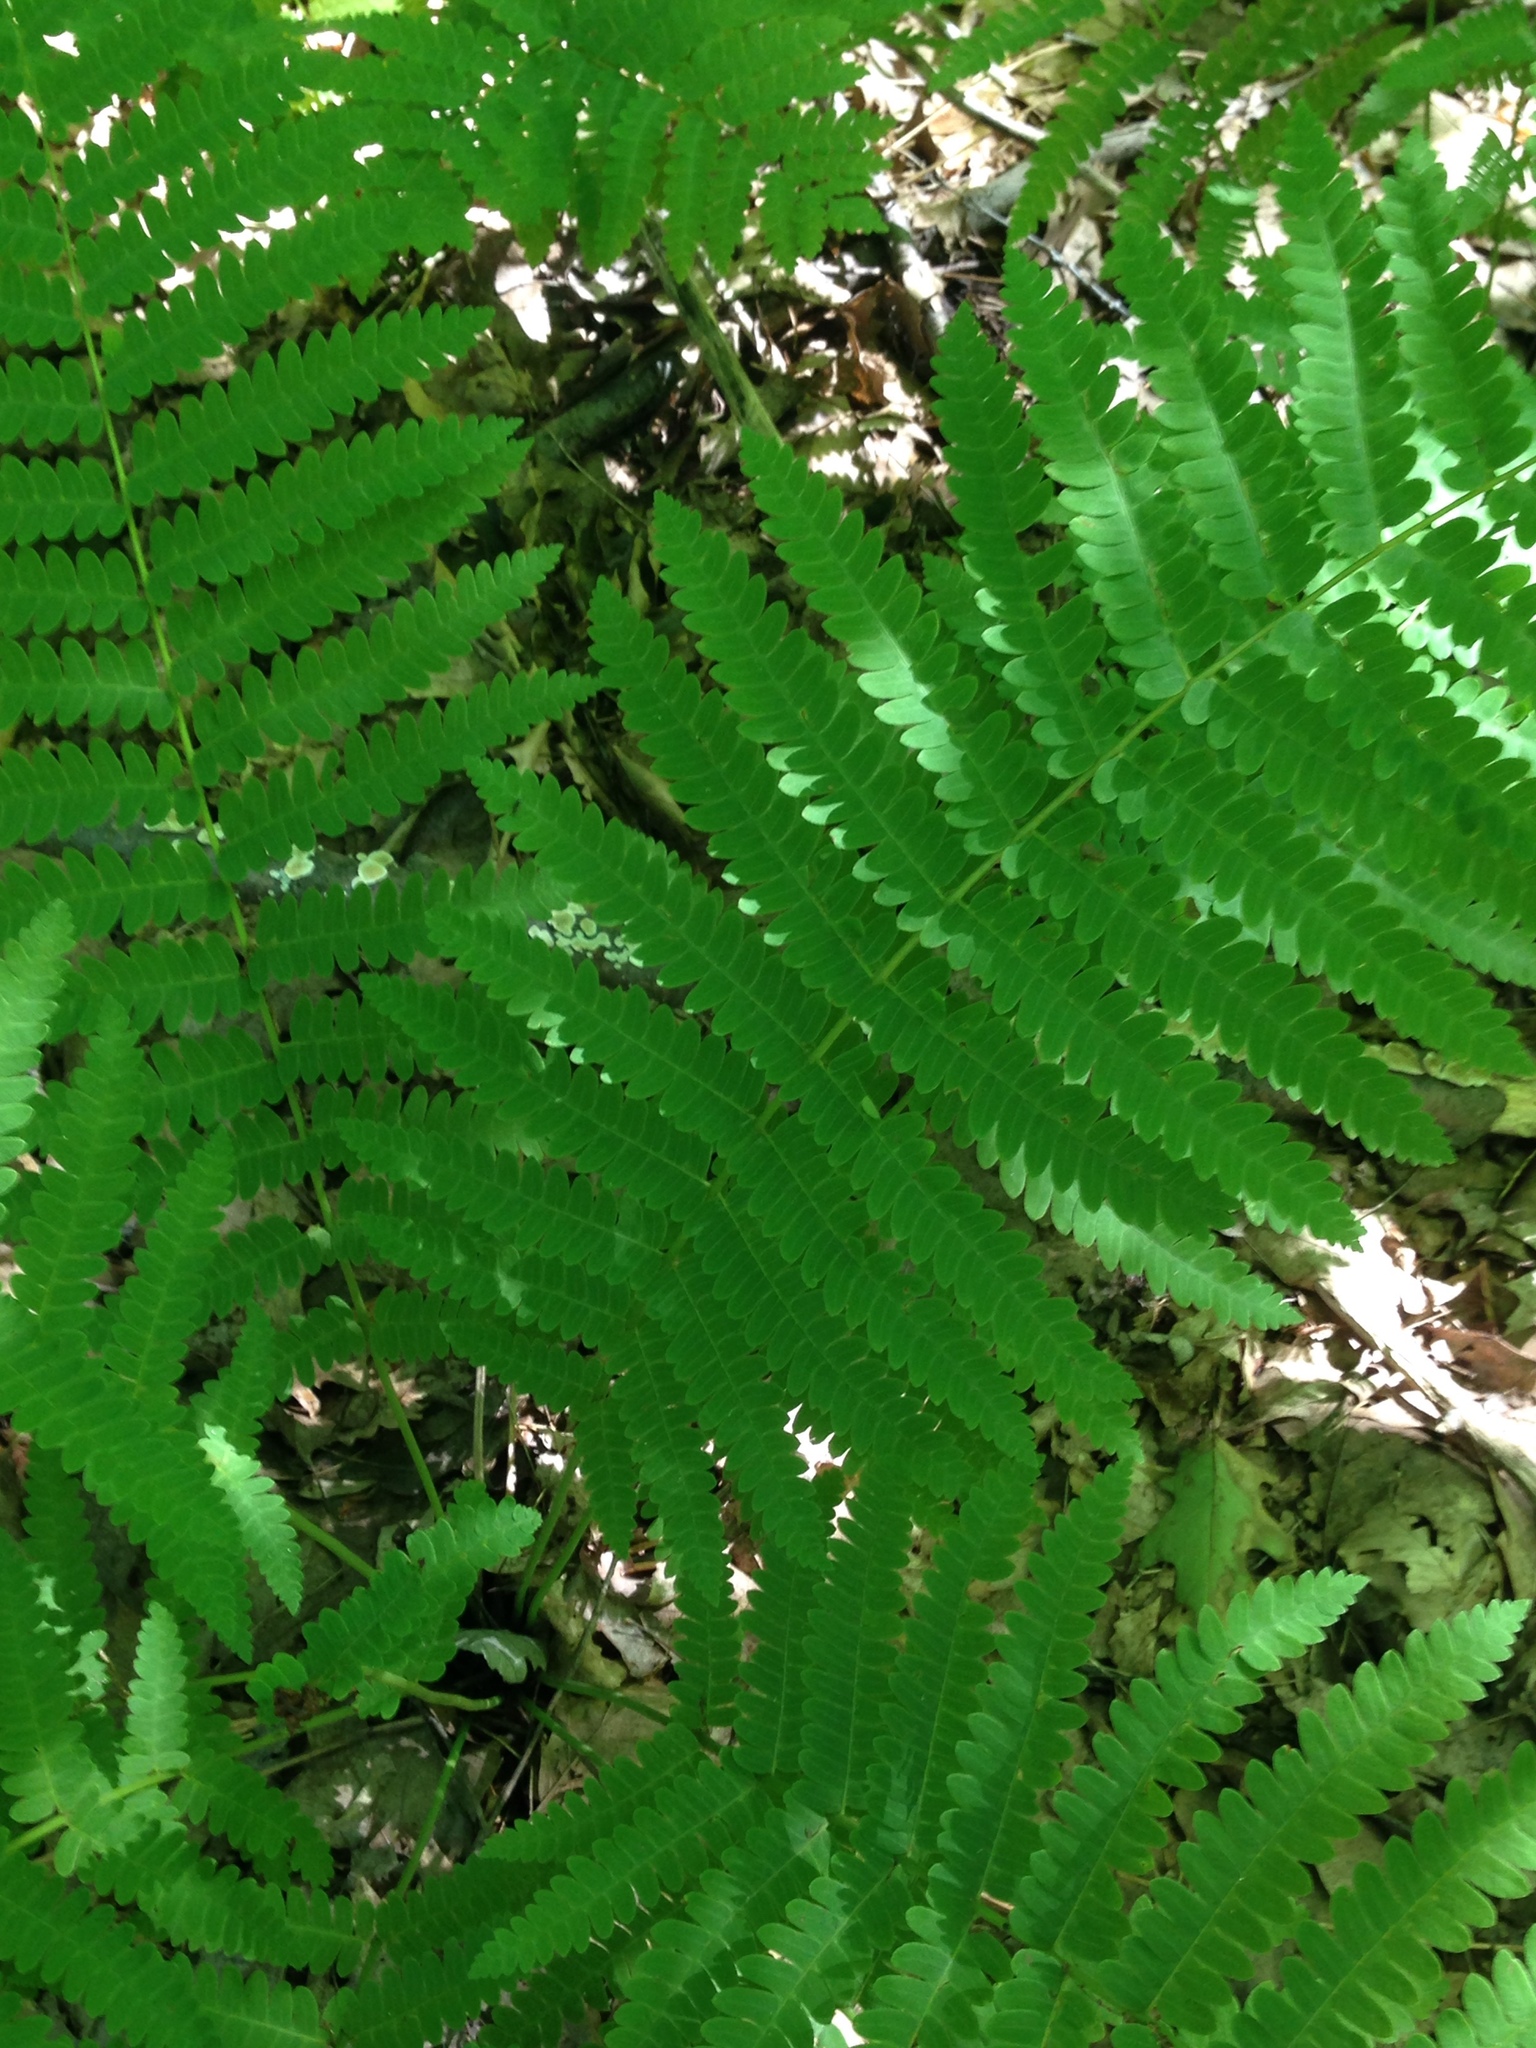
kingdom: Plantae
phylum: Tracheophyta
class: Polypodiopsida
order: Osmundales
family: Osmundaceae
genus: Claytosmunda
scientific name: Claytosmunda claytoniana
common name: Clayton's fern
